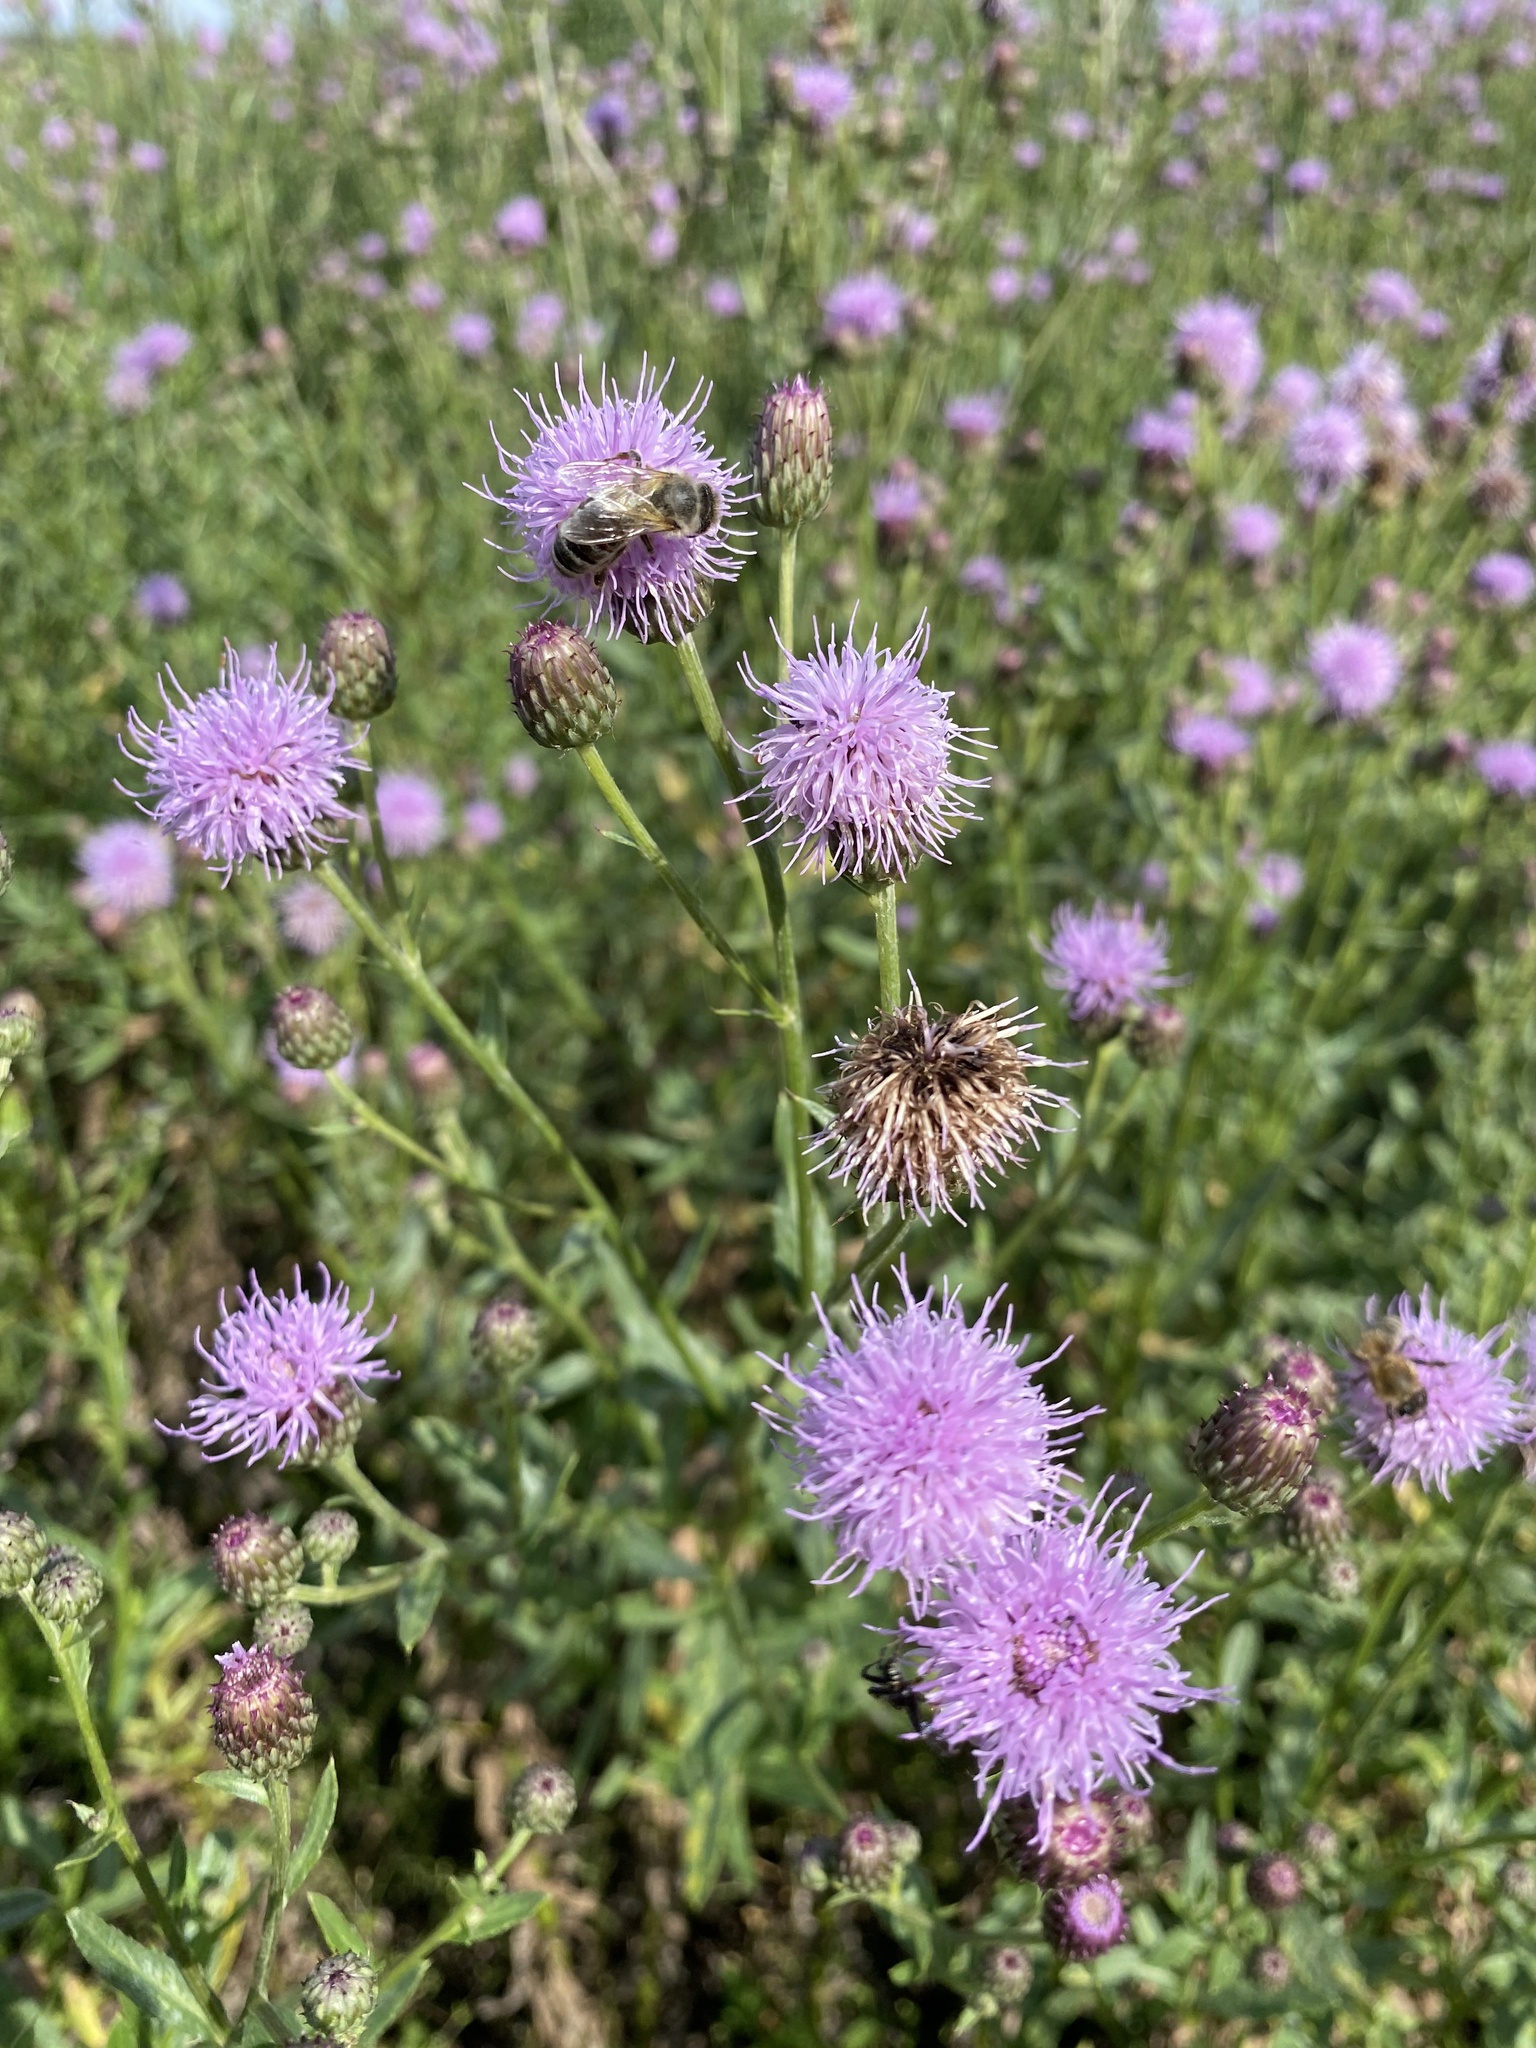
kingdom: Plantae
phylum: Tracheophyta
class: Magnoliopsida
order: Asterales
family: Asteraceae
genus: Cirsium
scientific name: Cirsium arvense
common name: Creeping thistle
